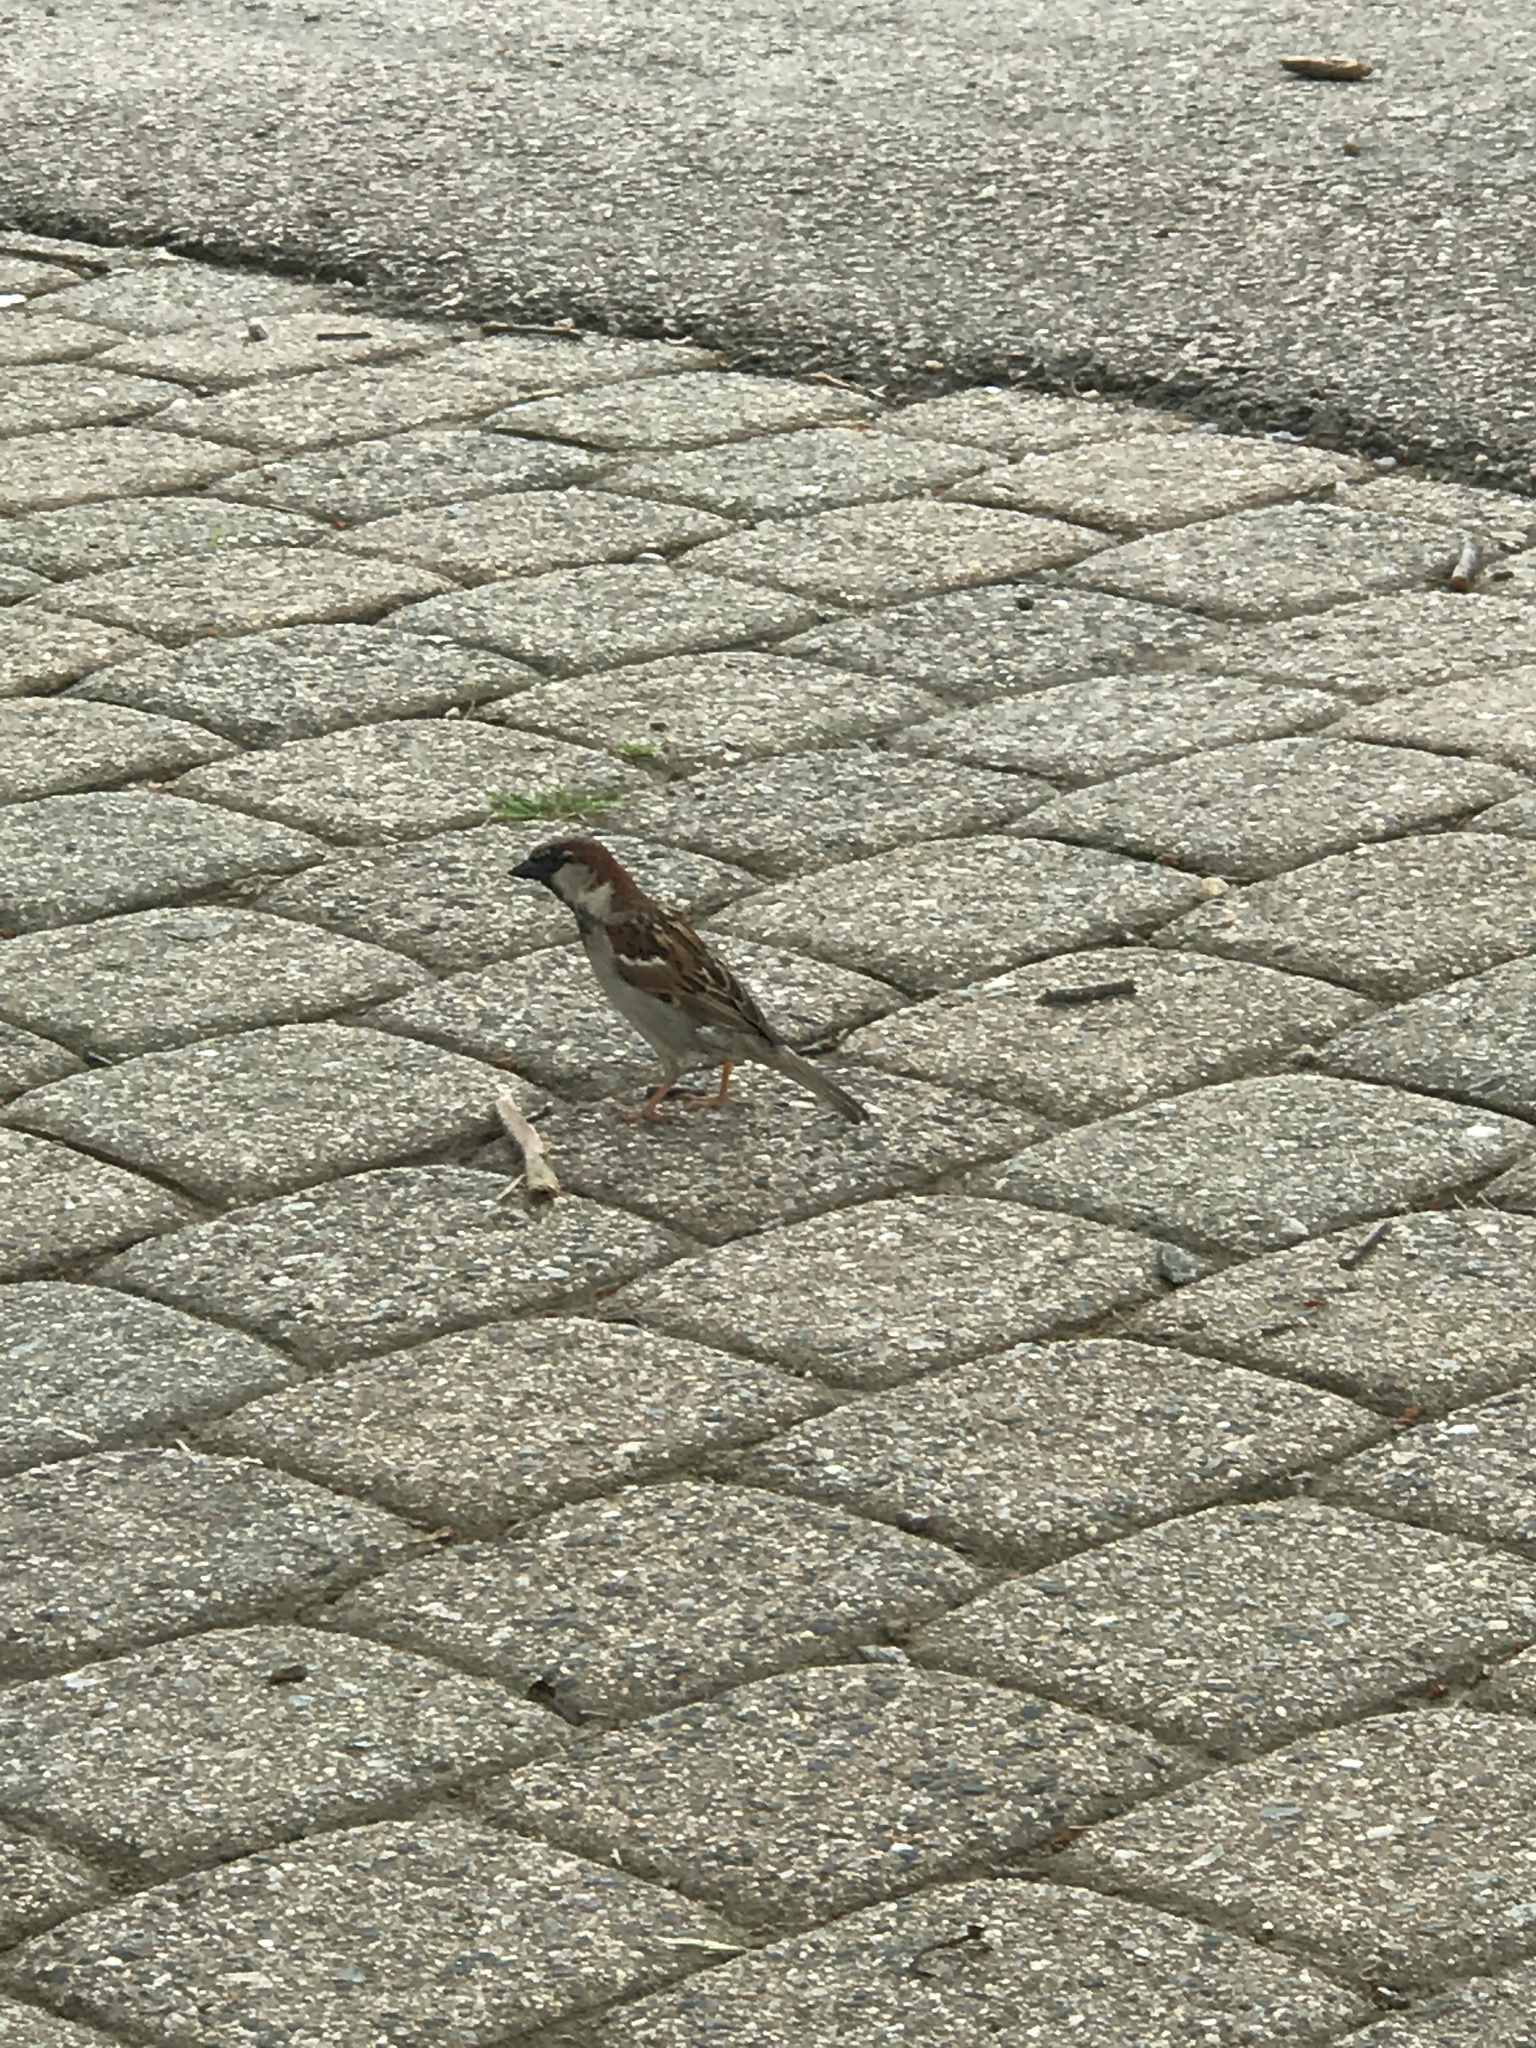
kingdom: Animalia
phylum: Chordata
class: Aves
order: Passeriformes
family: Passeridae
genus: Passer
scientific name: Passer domesticus
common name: House sparrow
